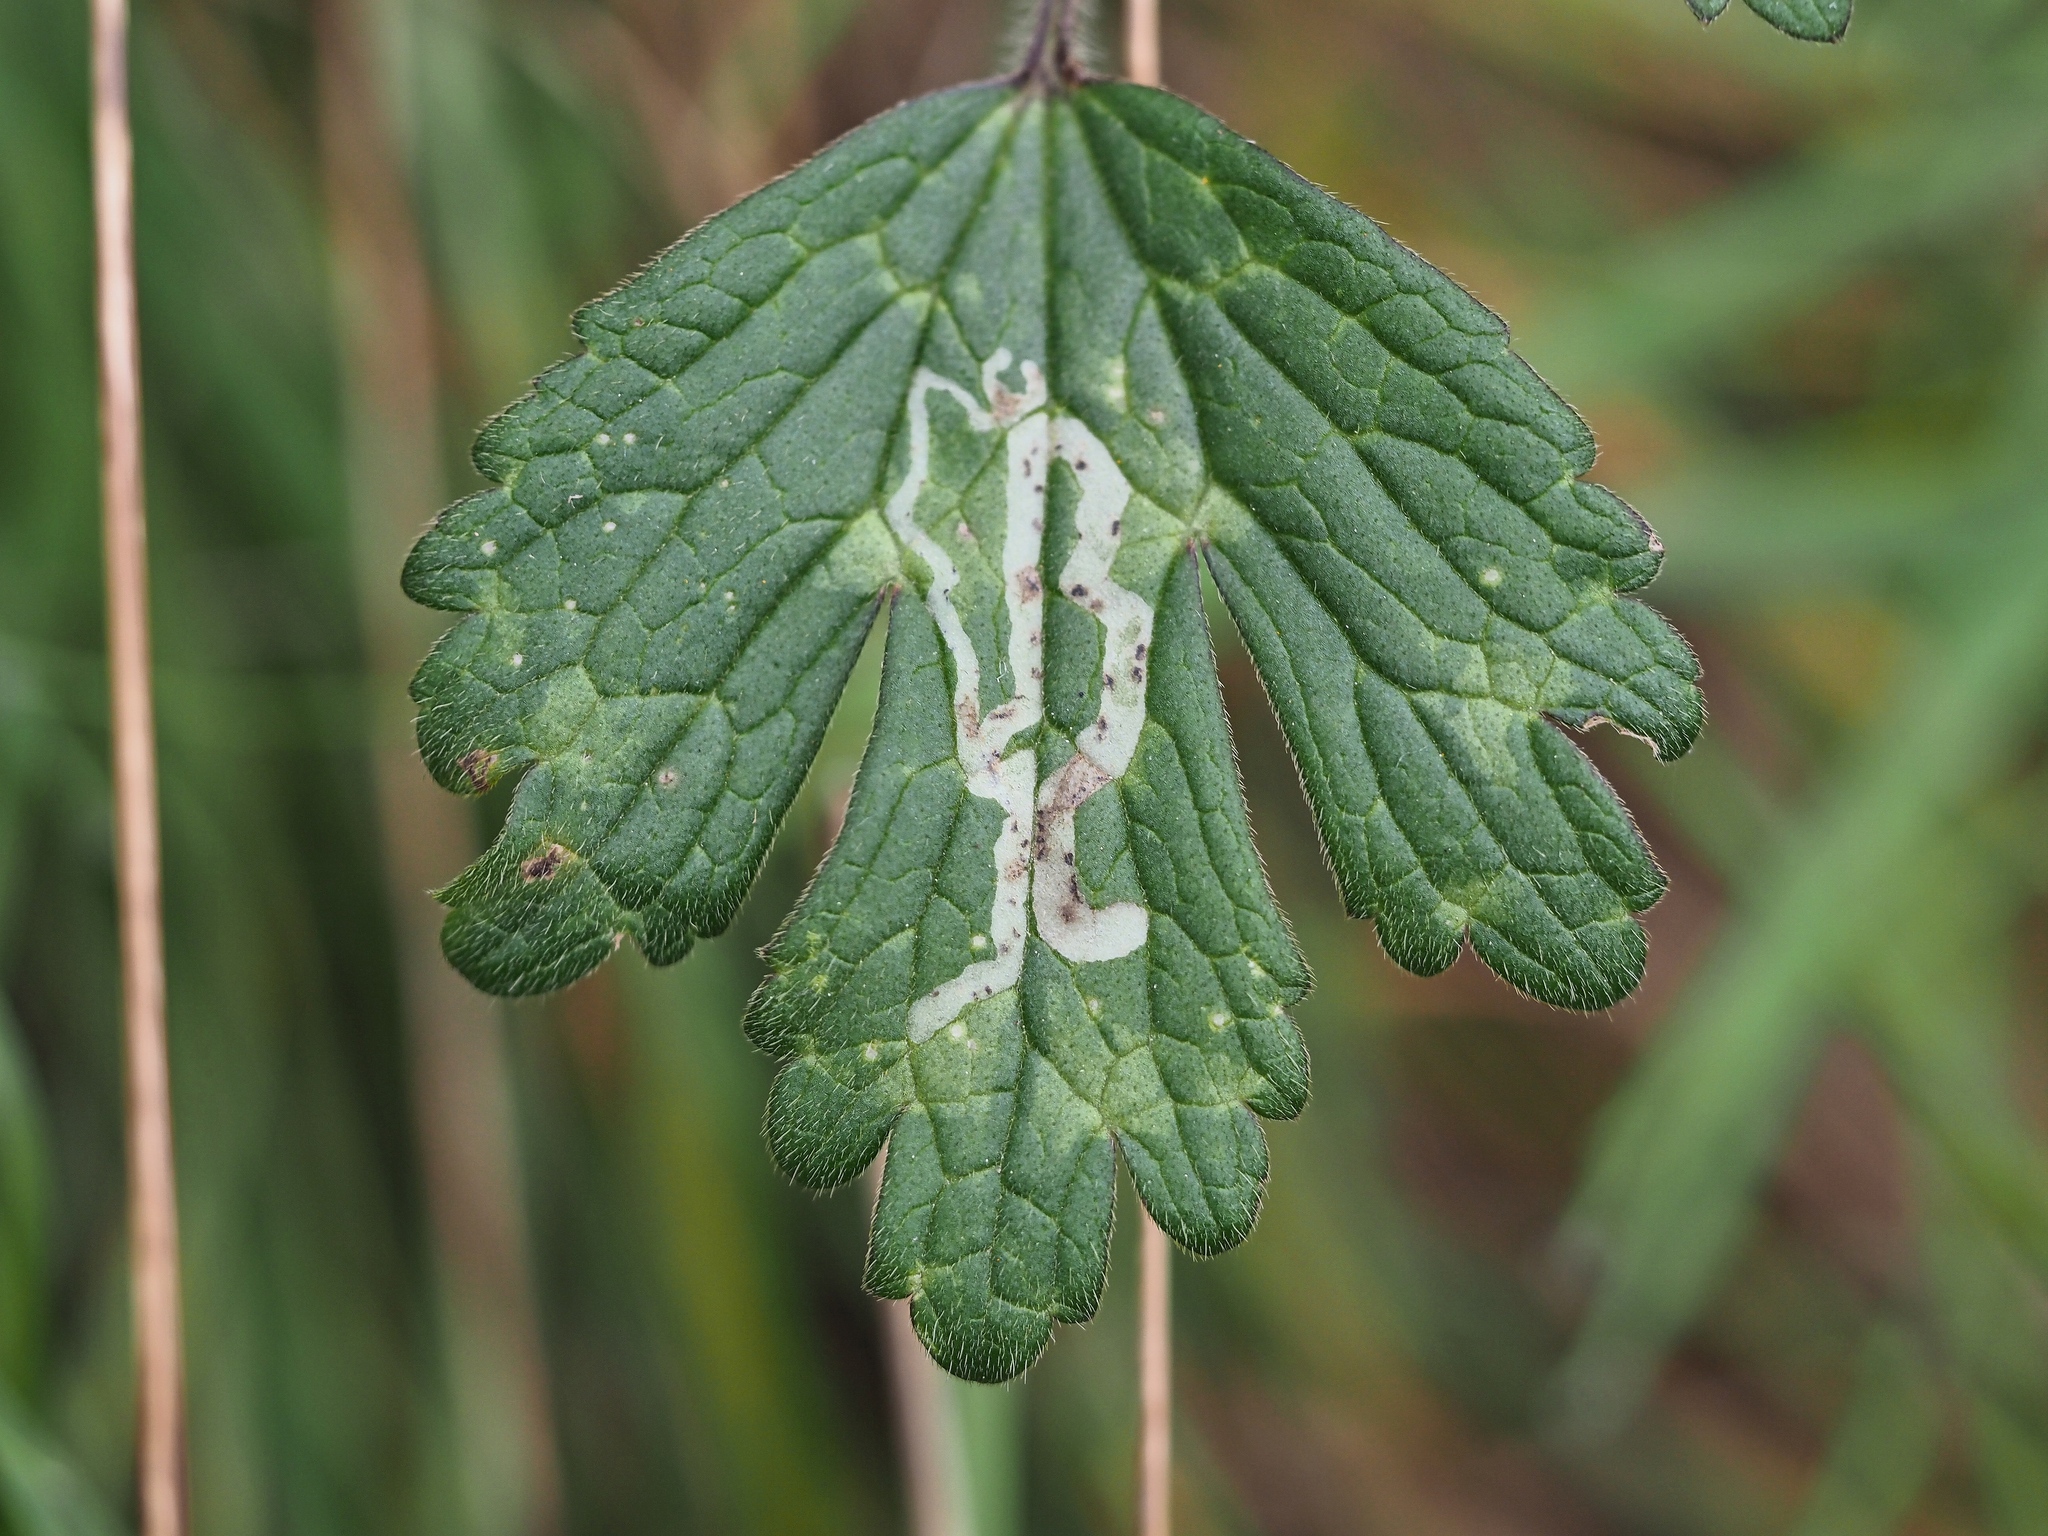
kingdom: Animalia
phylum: Arthropoda
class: Insecta
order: Diptera
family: Agromyzidae
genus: Phytomyza
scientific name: Phytomyza ranunculivora
